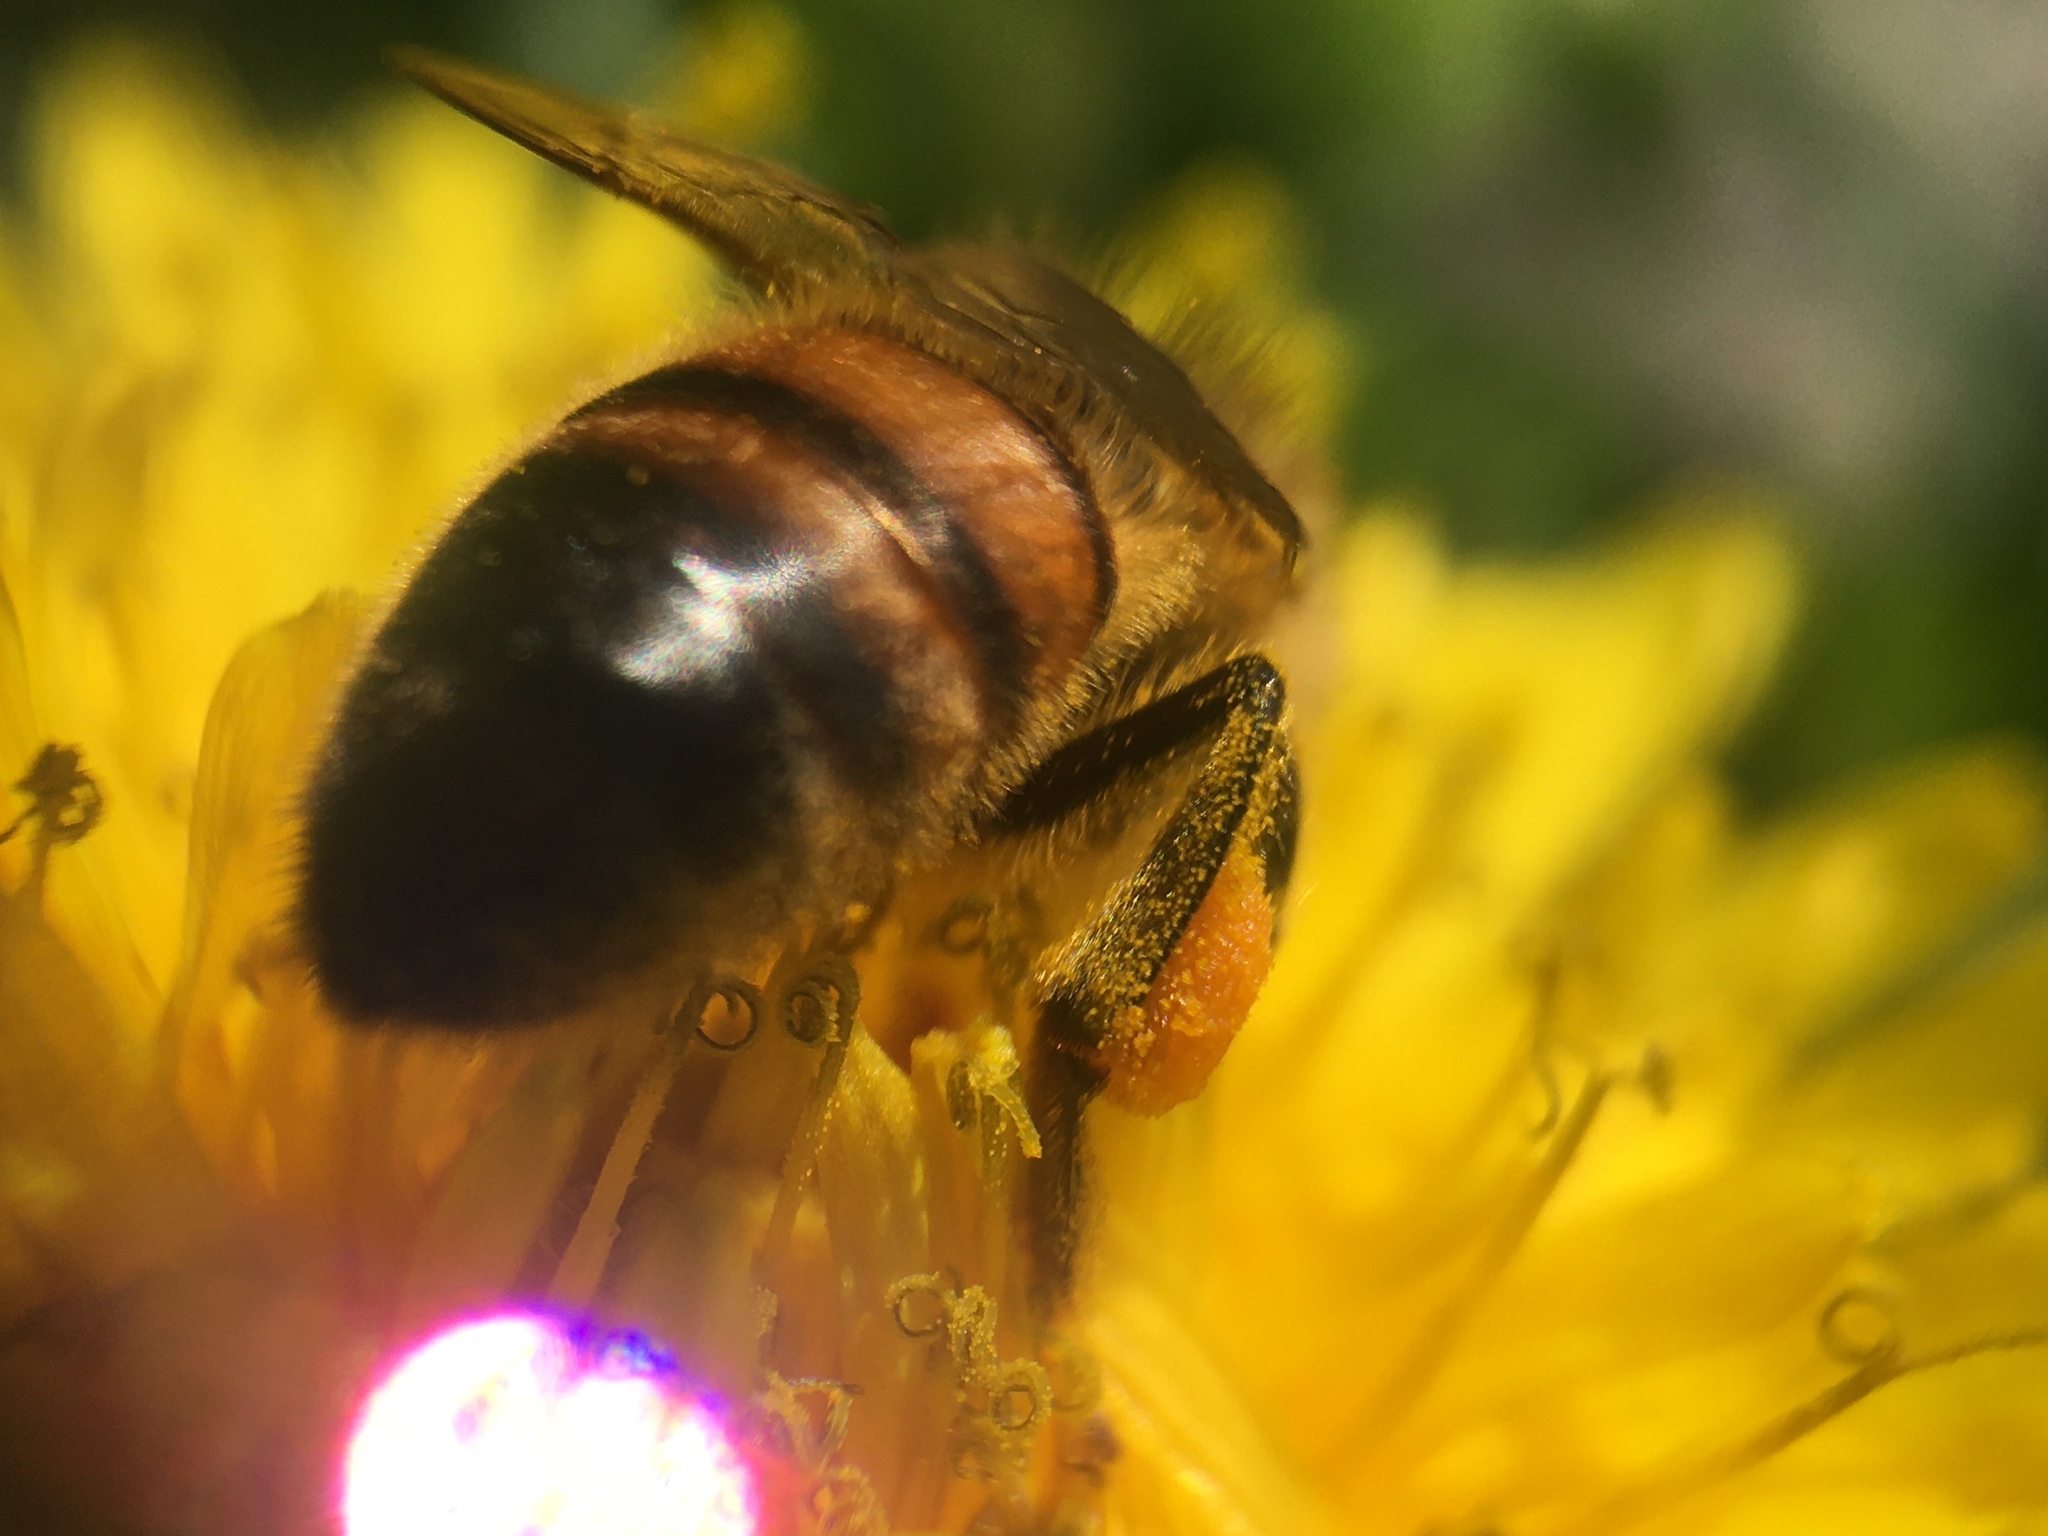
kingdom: Animalia
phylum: Arthropoda
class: Insecta
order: Hymenoptera
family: Apidae
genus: Apis
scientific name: Apis mellifera
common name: Honey bee
